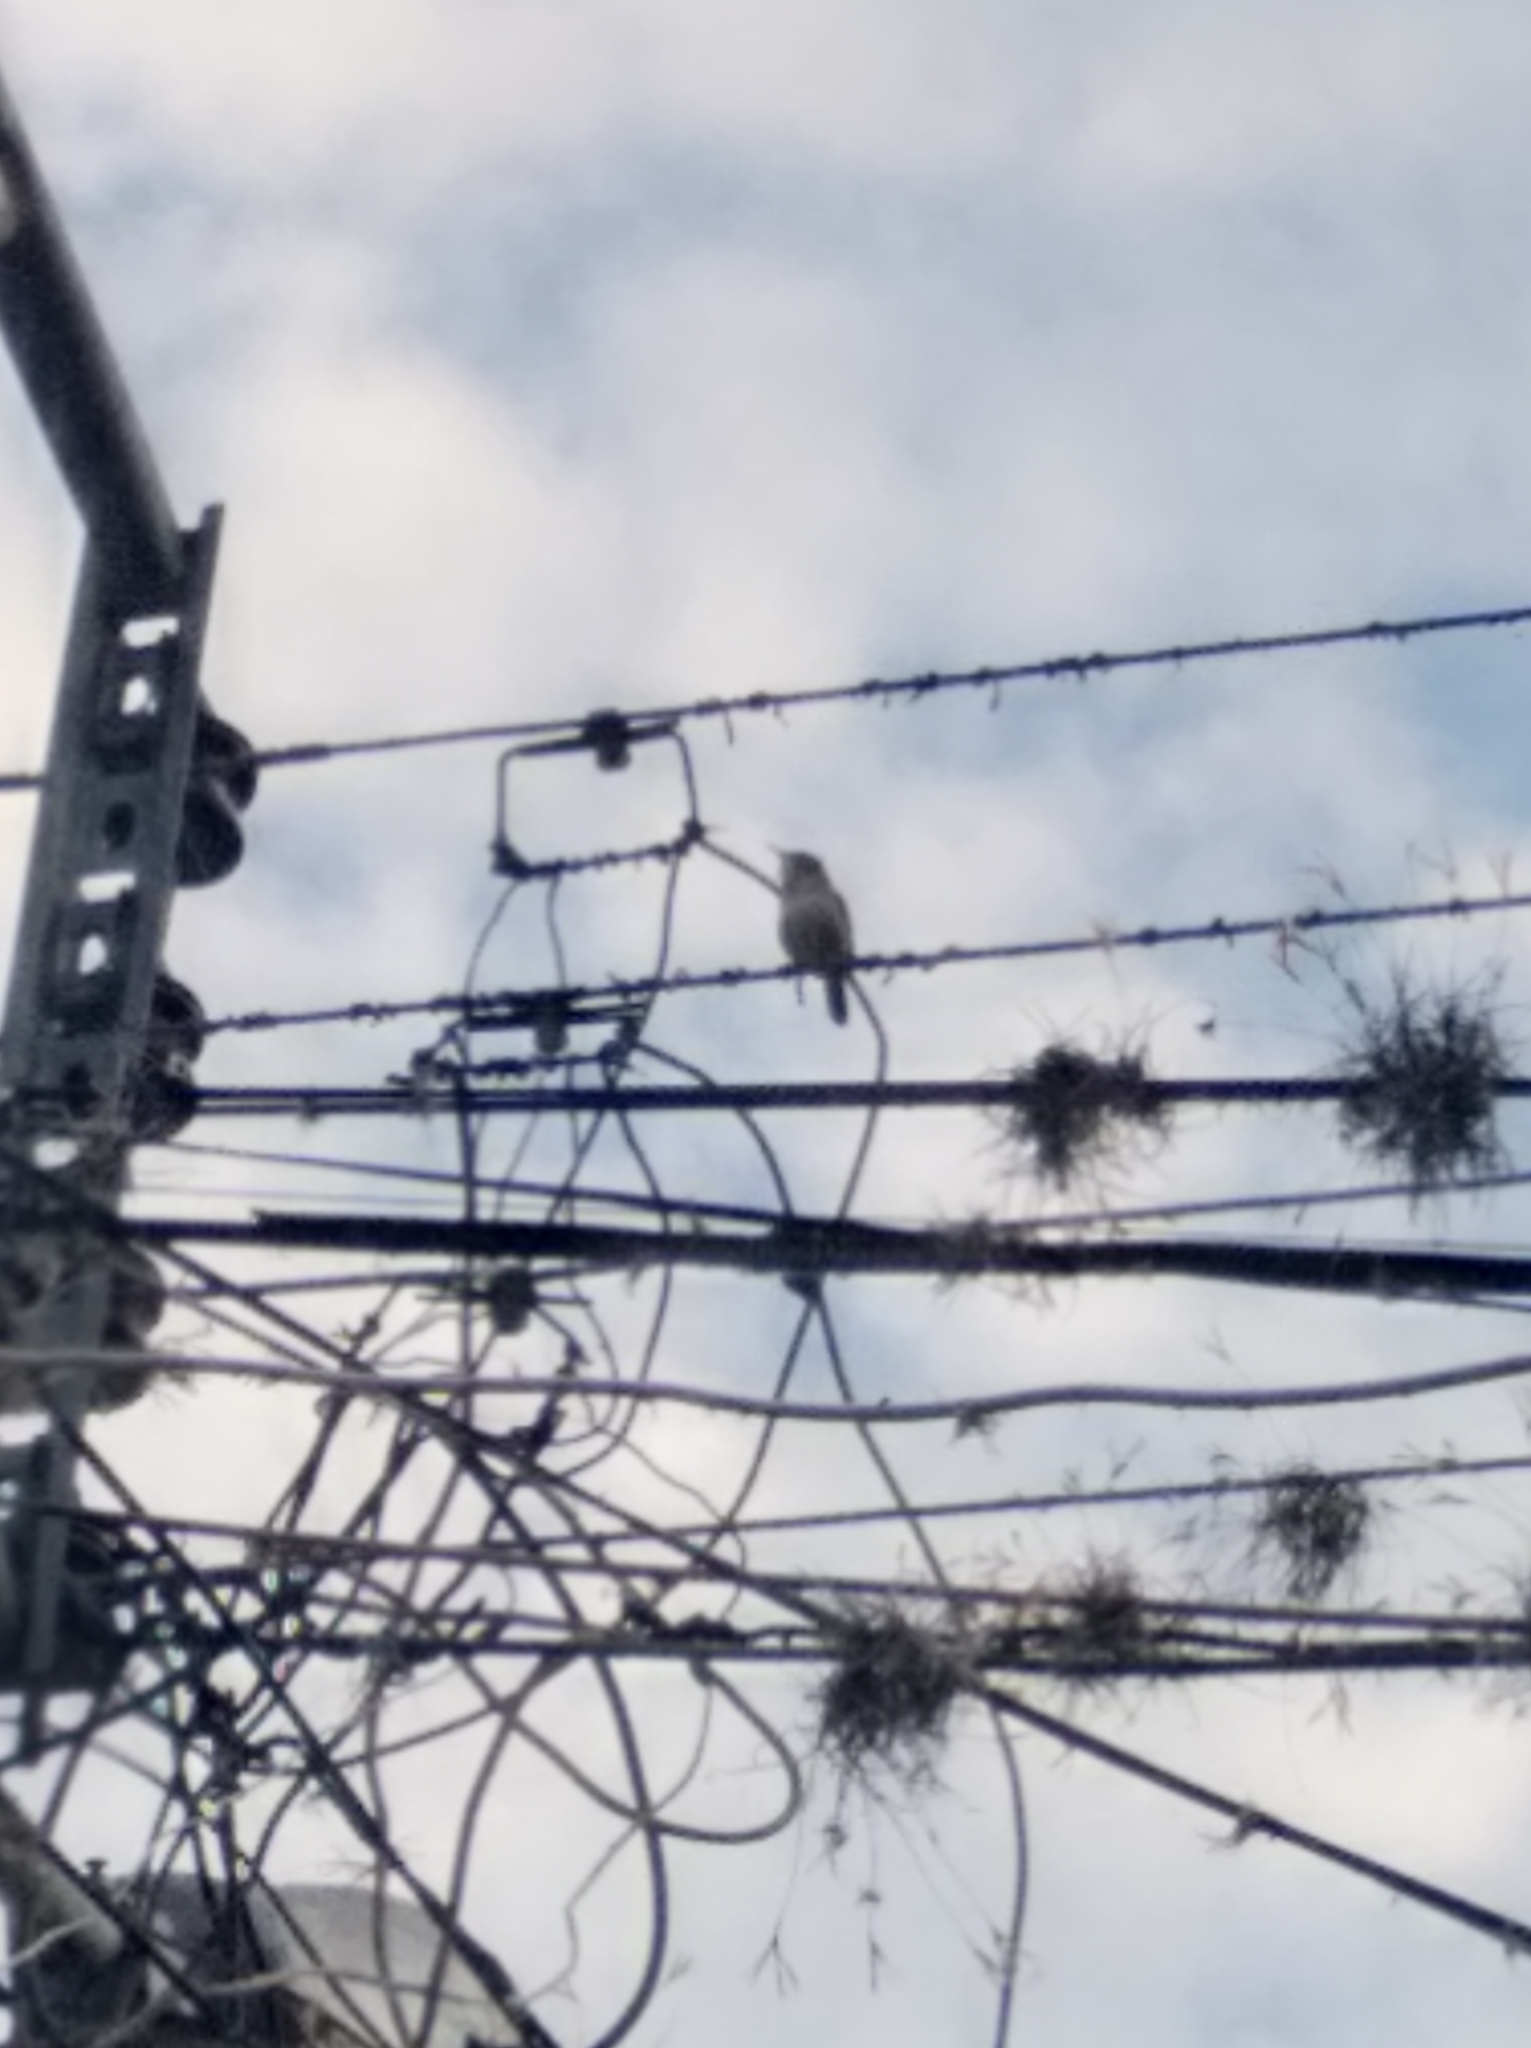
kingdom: Animalia
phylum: Chordata
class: Aves
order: Passeriformes
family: Troglodytidae
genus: Troglodytes
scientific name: Troglodytes aedon
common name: House wren
